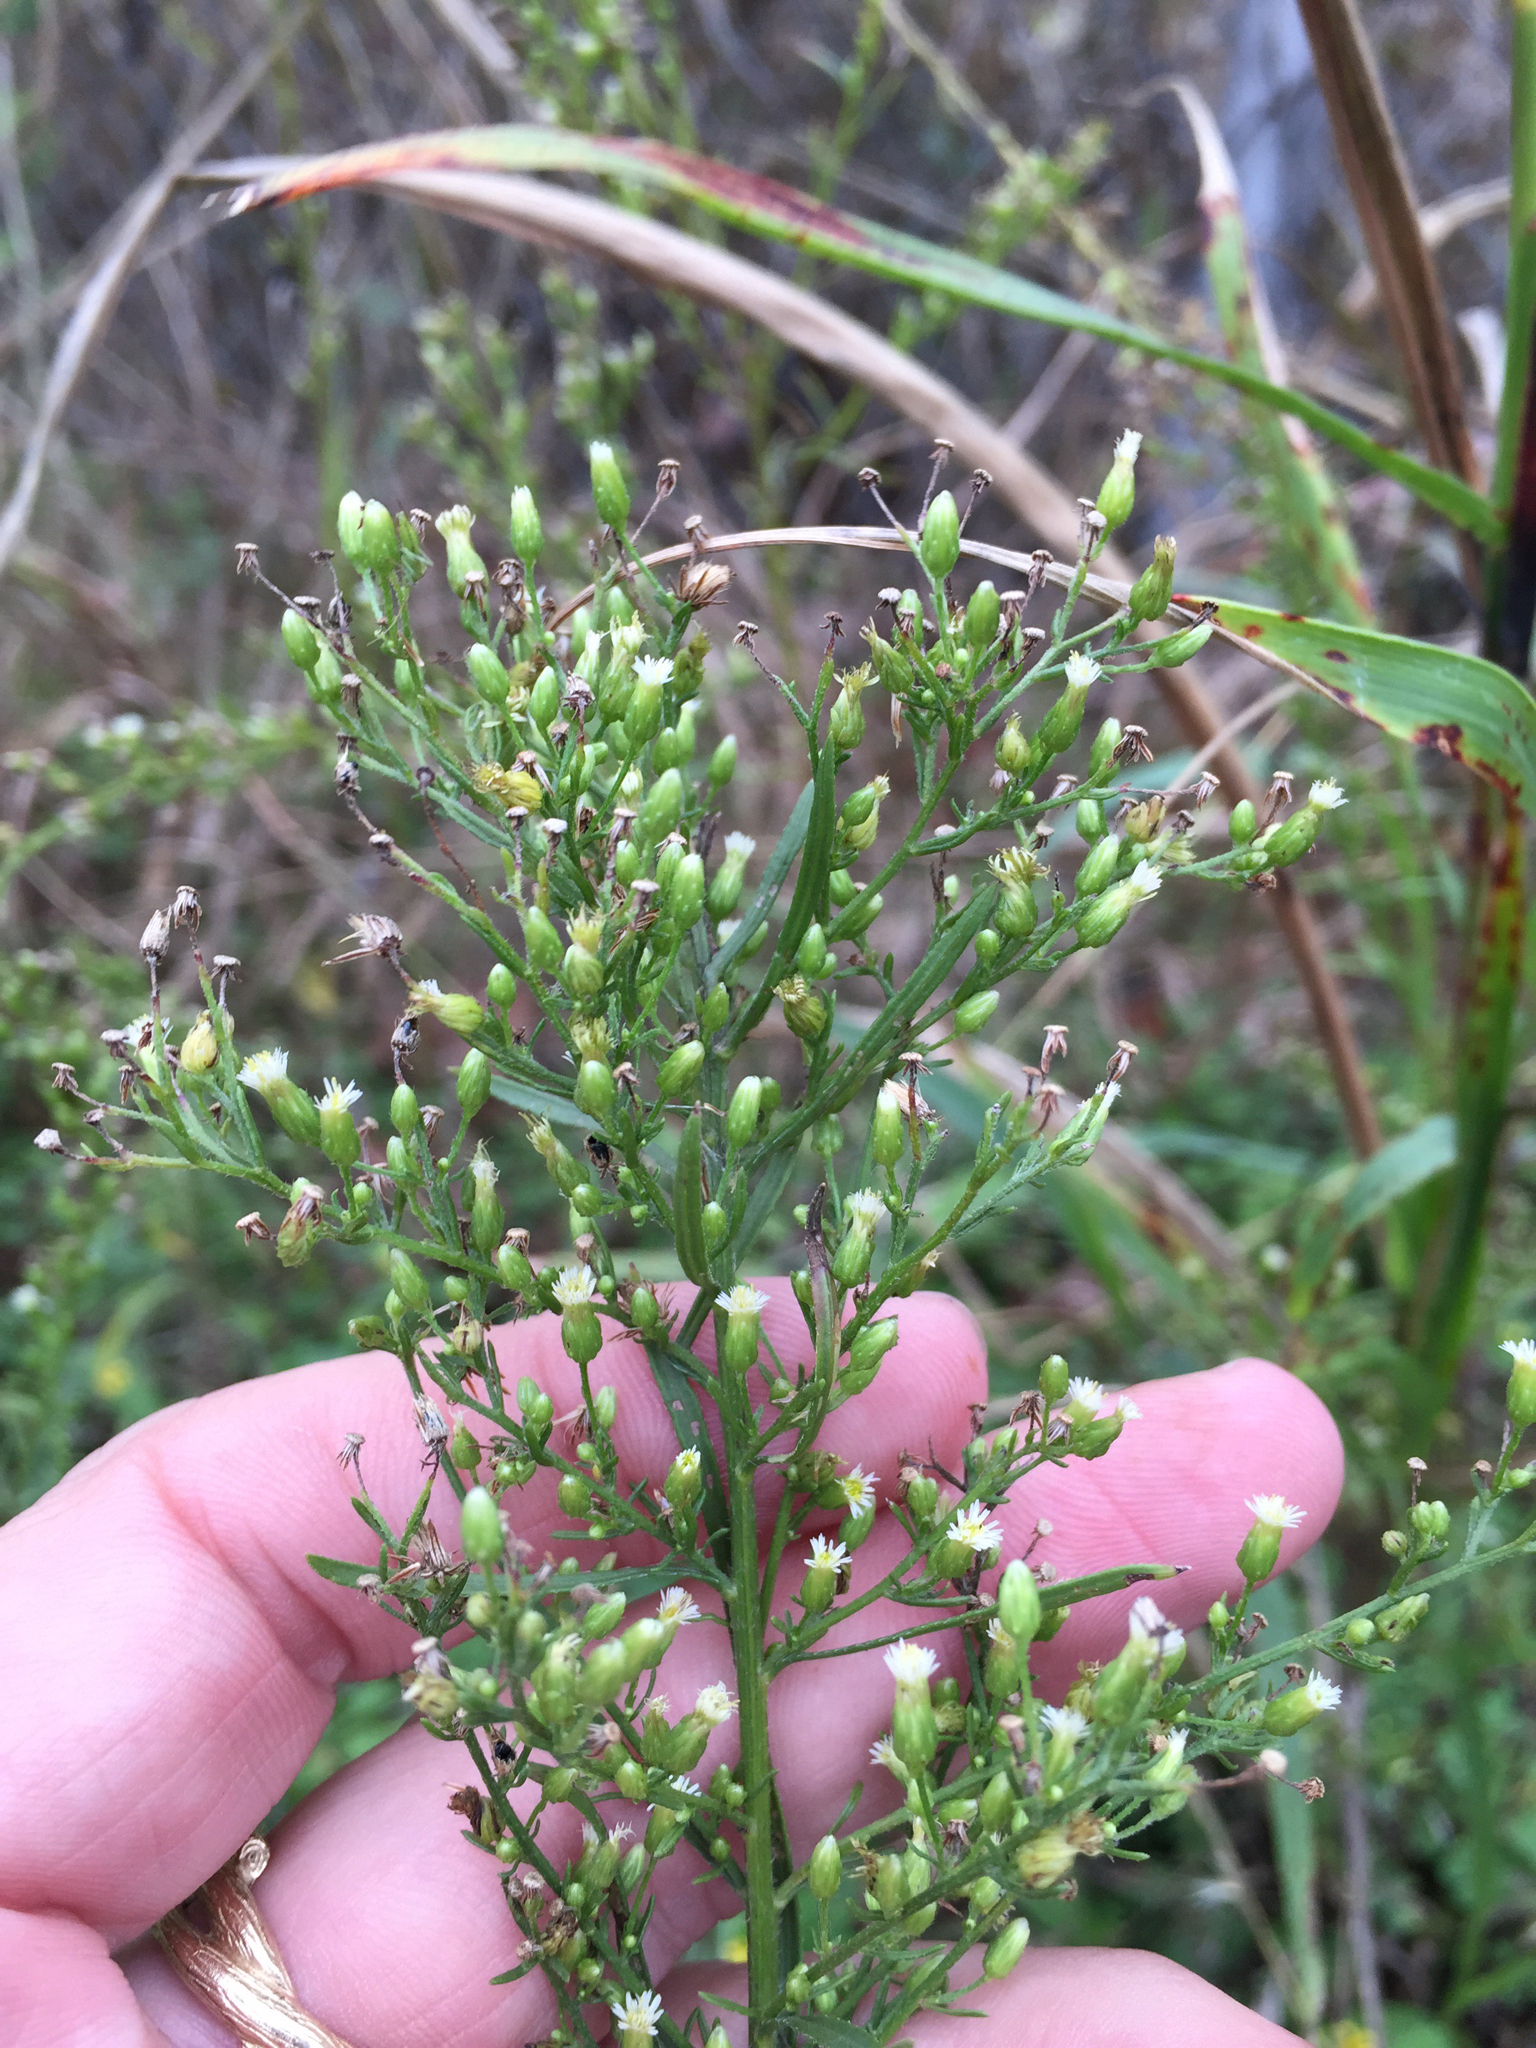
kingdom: Plantae
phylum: Tracheophyta
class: Magnoliopsida
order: Asterales
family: Asteraceae
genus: Erigeron
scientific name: Erigeron canadensis
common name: Canadian fleabane
